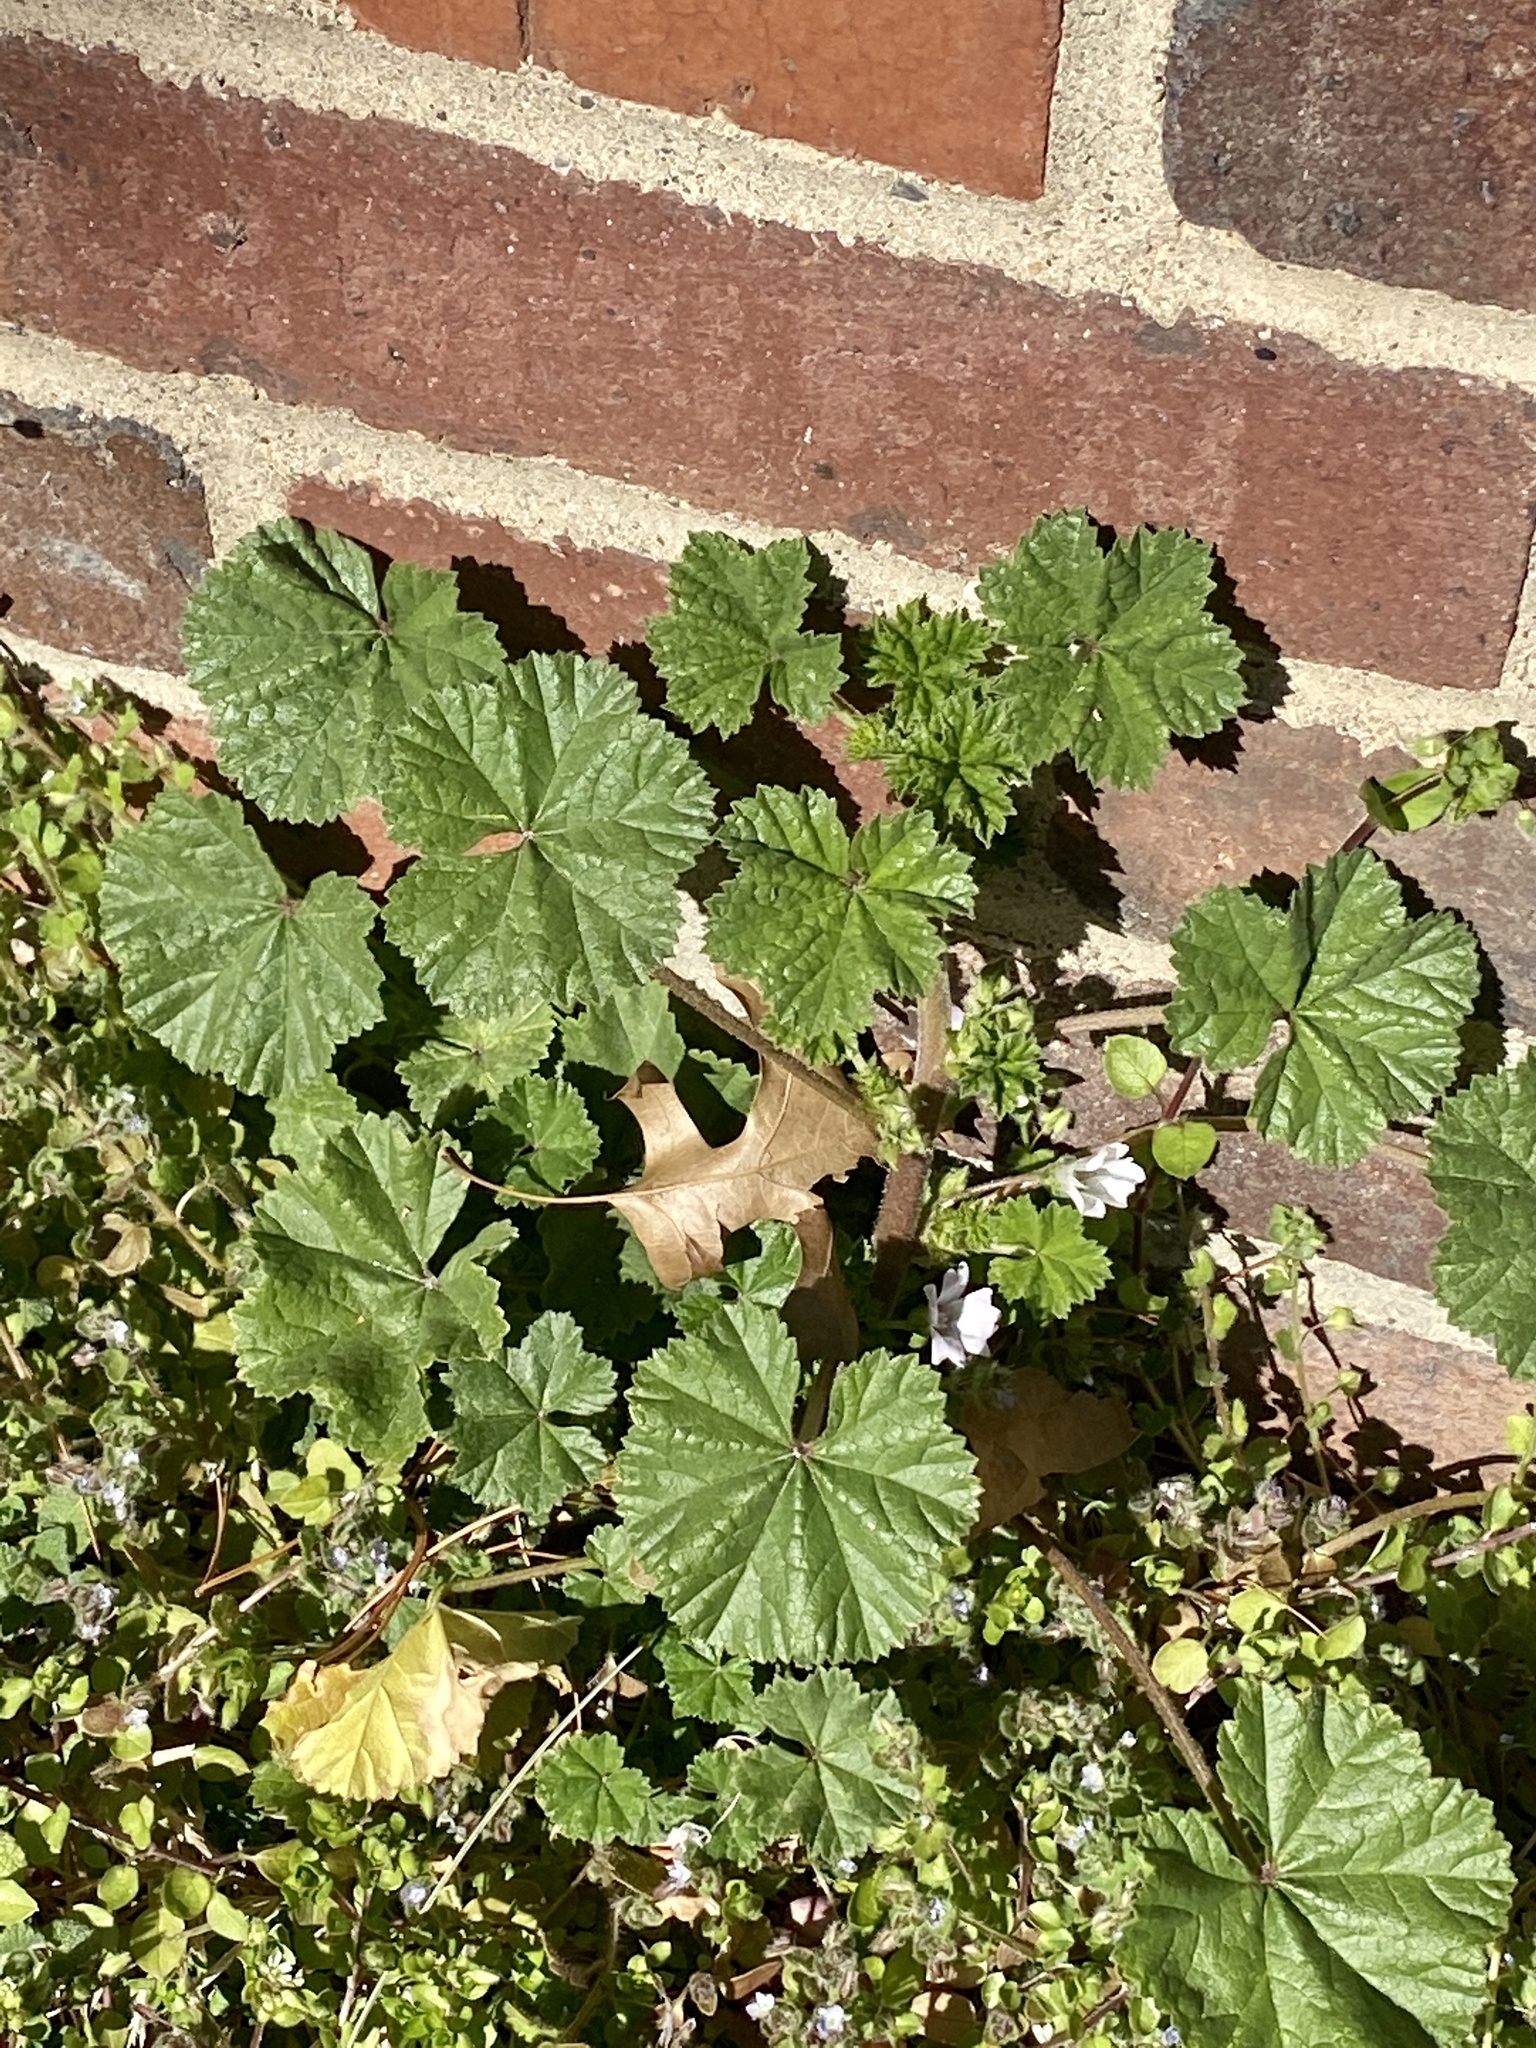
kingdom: Plantae
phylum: Tracheophyta
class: Magnoliopsida
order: Malvales
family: Malvaceae
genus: Malva
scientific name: Malva neglecta
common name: Common mallow
